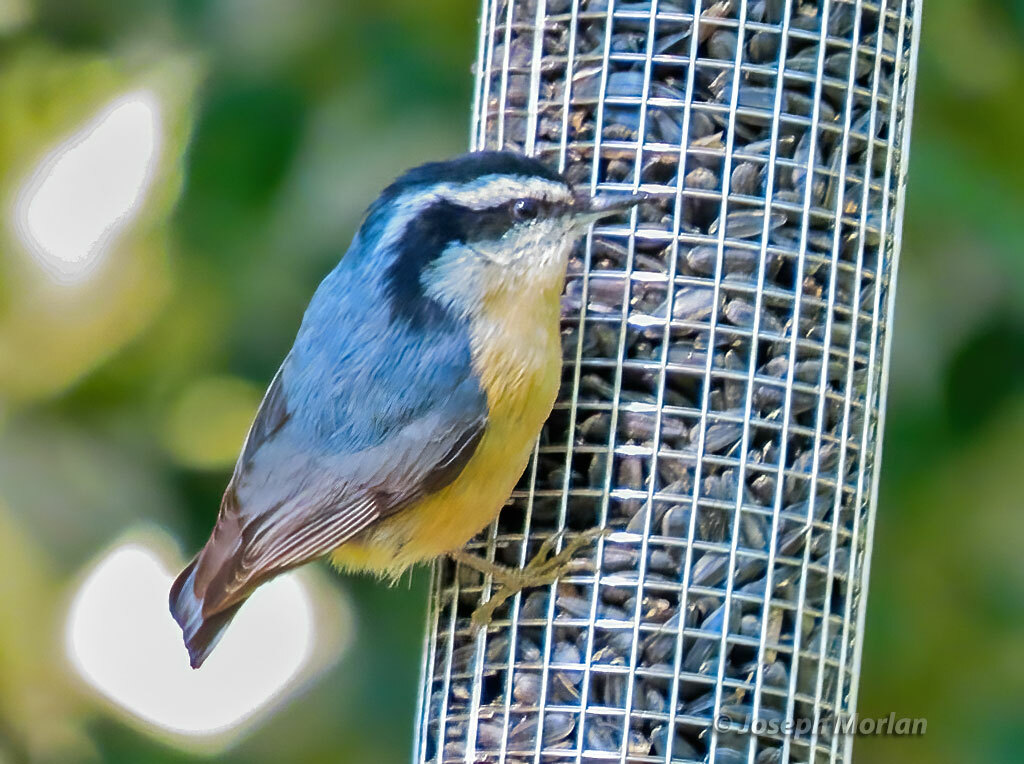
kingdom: Animalia
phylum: Chordata
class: Aves
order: Passeriformes
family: Sittidae
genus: Sitta
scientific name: Sitta canadensis
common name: Red-breasted nuthatch
